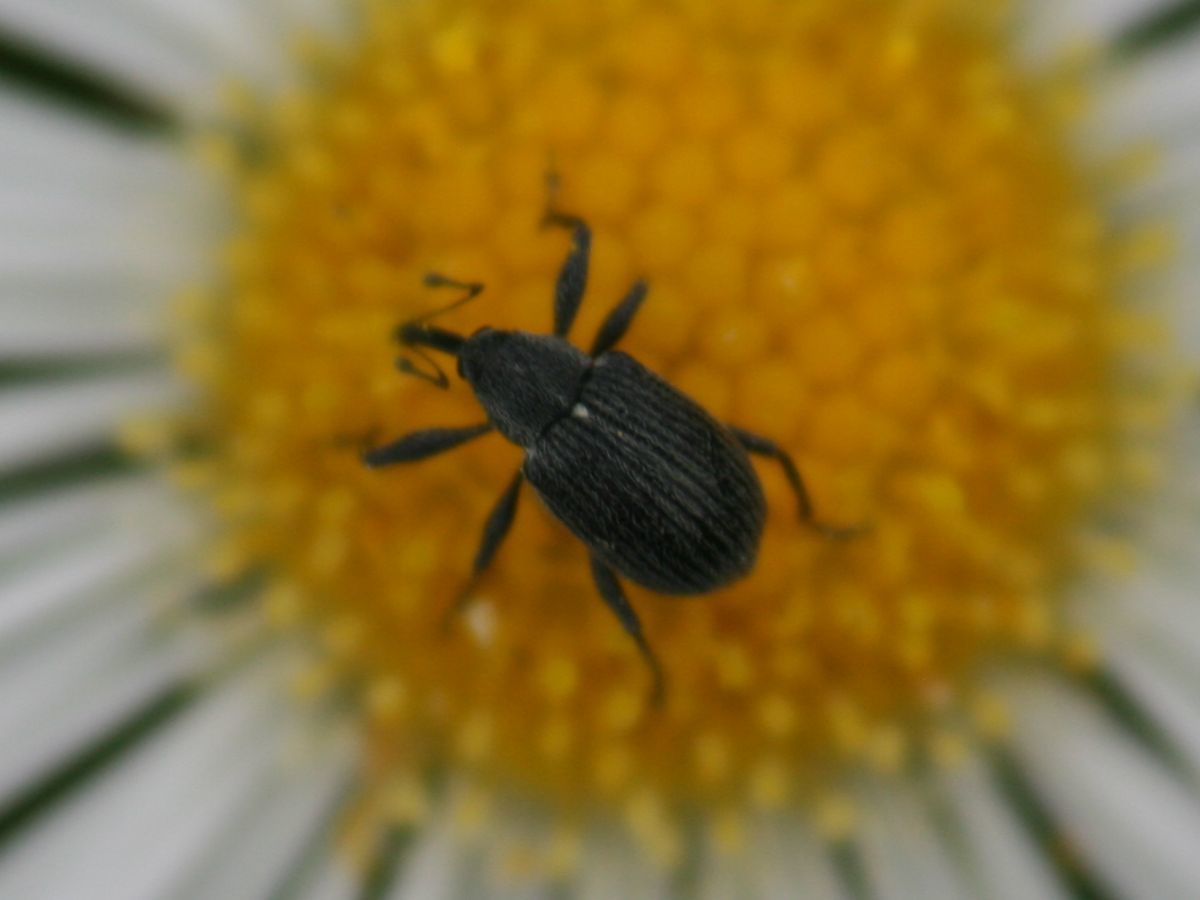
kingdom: Animalia
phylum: Arthropoda
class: Insecta
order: Coleoptera
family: Curculionidae
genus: Anthonomus
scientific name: Anthonomus rubi
